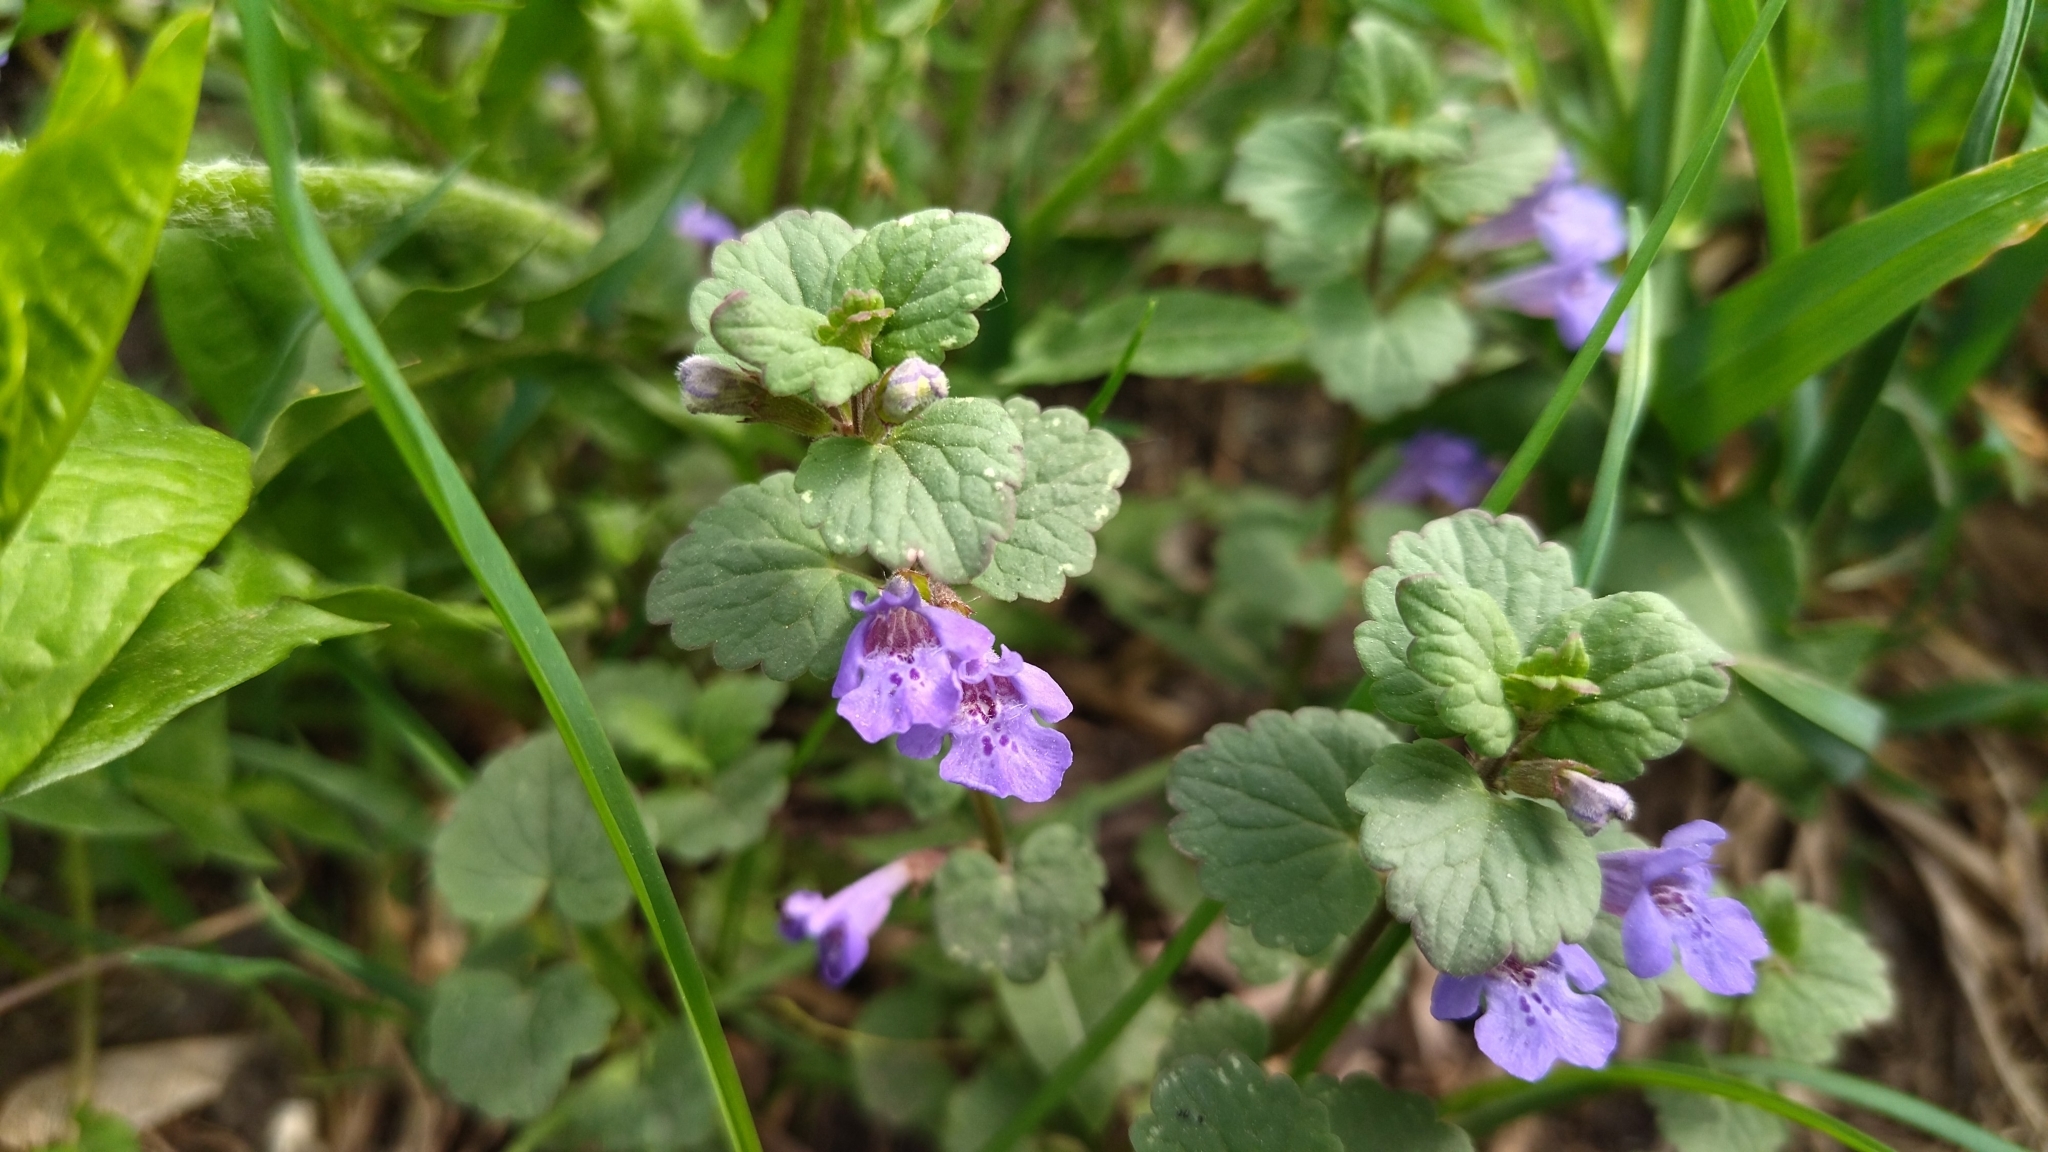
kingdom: Plantae
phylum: Tracheophyta
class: Magnoliopsida
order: Lamiales
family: Lamiaceae
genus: Glechoma
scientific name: Glechoma hederacea
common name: Ground ivy
